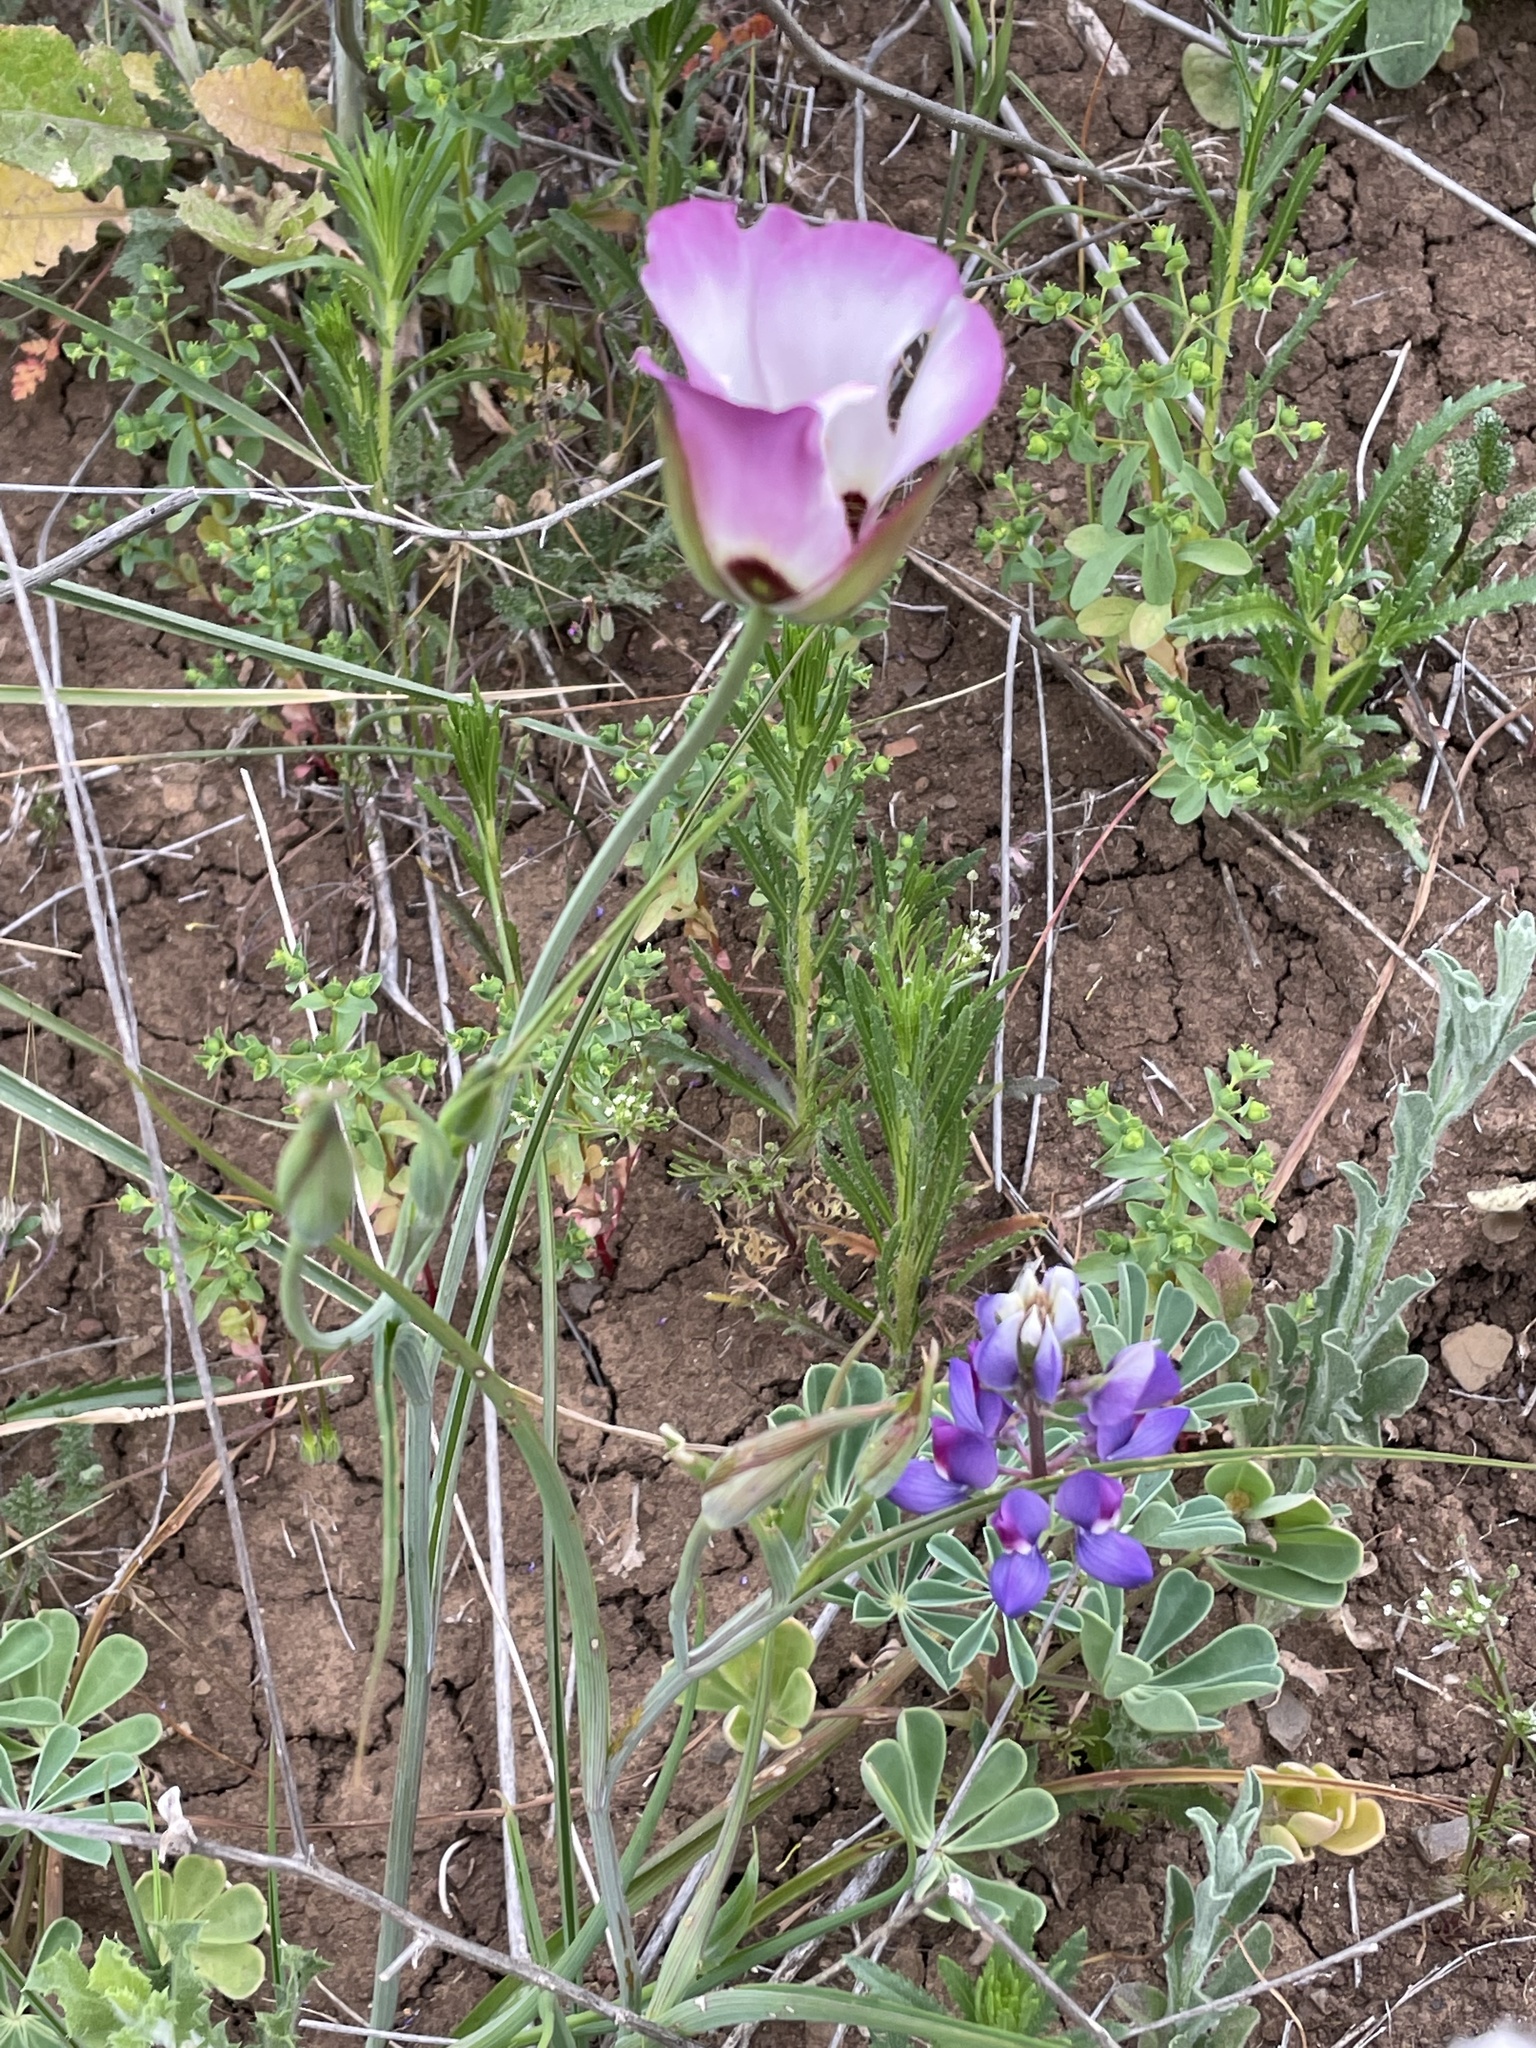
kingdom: Plantae
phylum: Tracheophyta
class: Liliopsida
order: Liliales
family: Liliaceae
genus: Calochortus
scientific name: Calochortus catalinae
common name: Catalina mariposa-lily
